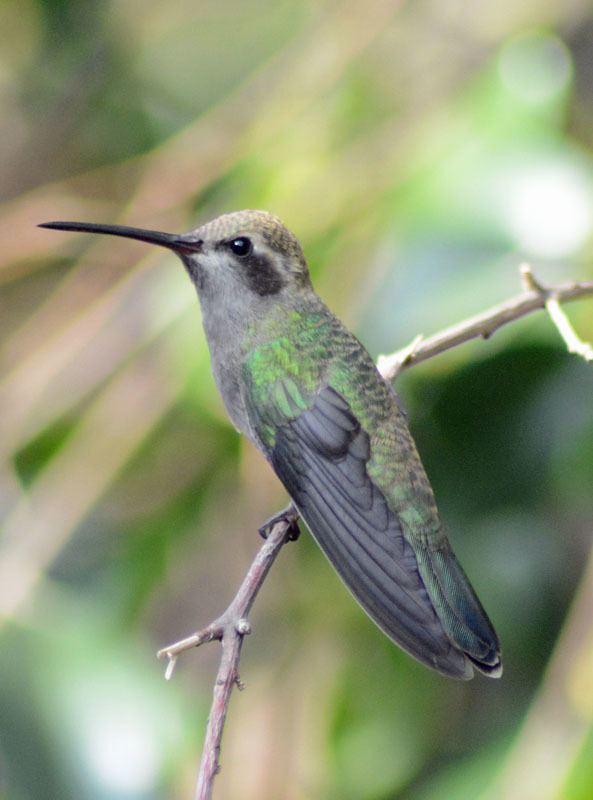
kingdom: Animalia
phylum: Chordata
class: Aves
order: Apodiformes
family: Trochilidae
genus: Cynanthus
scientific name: Cynanthus latirostris
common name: Broad-billed hummingbird
